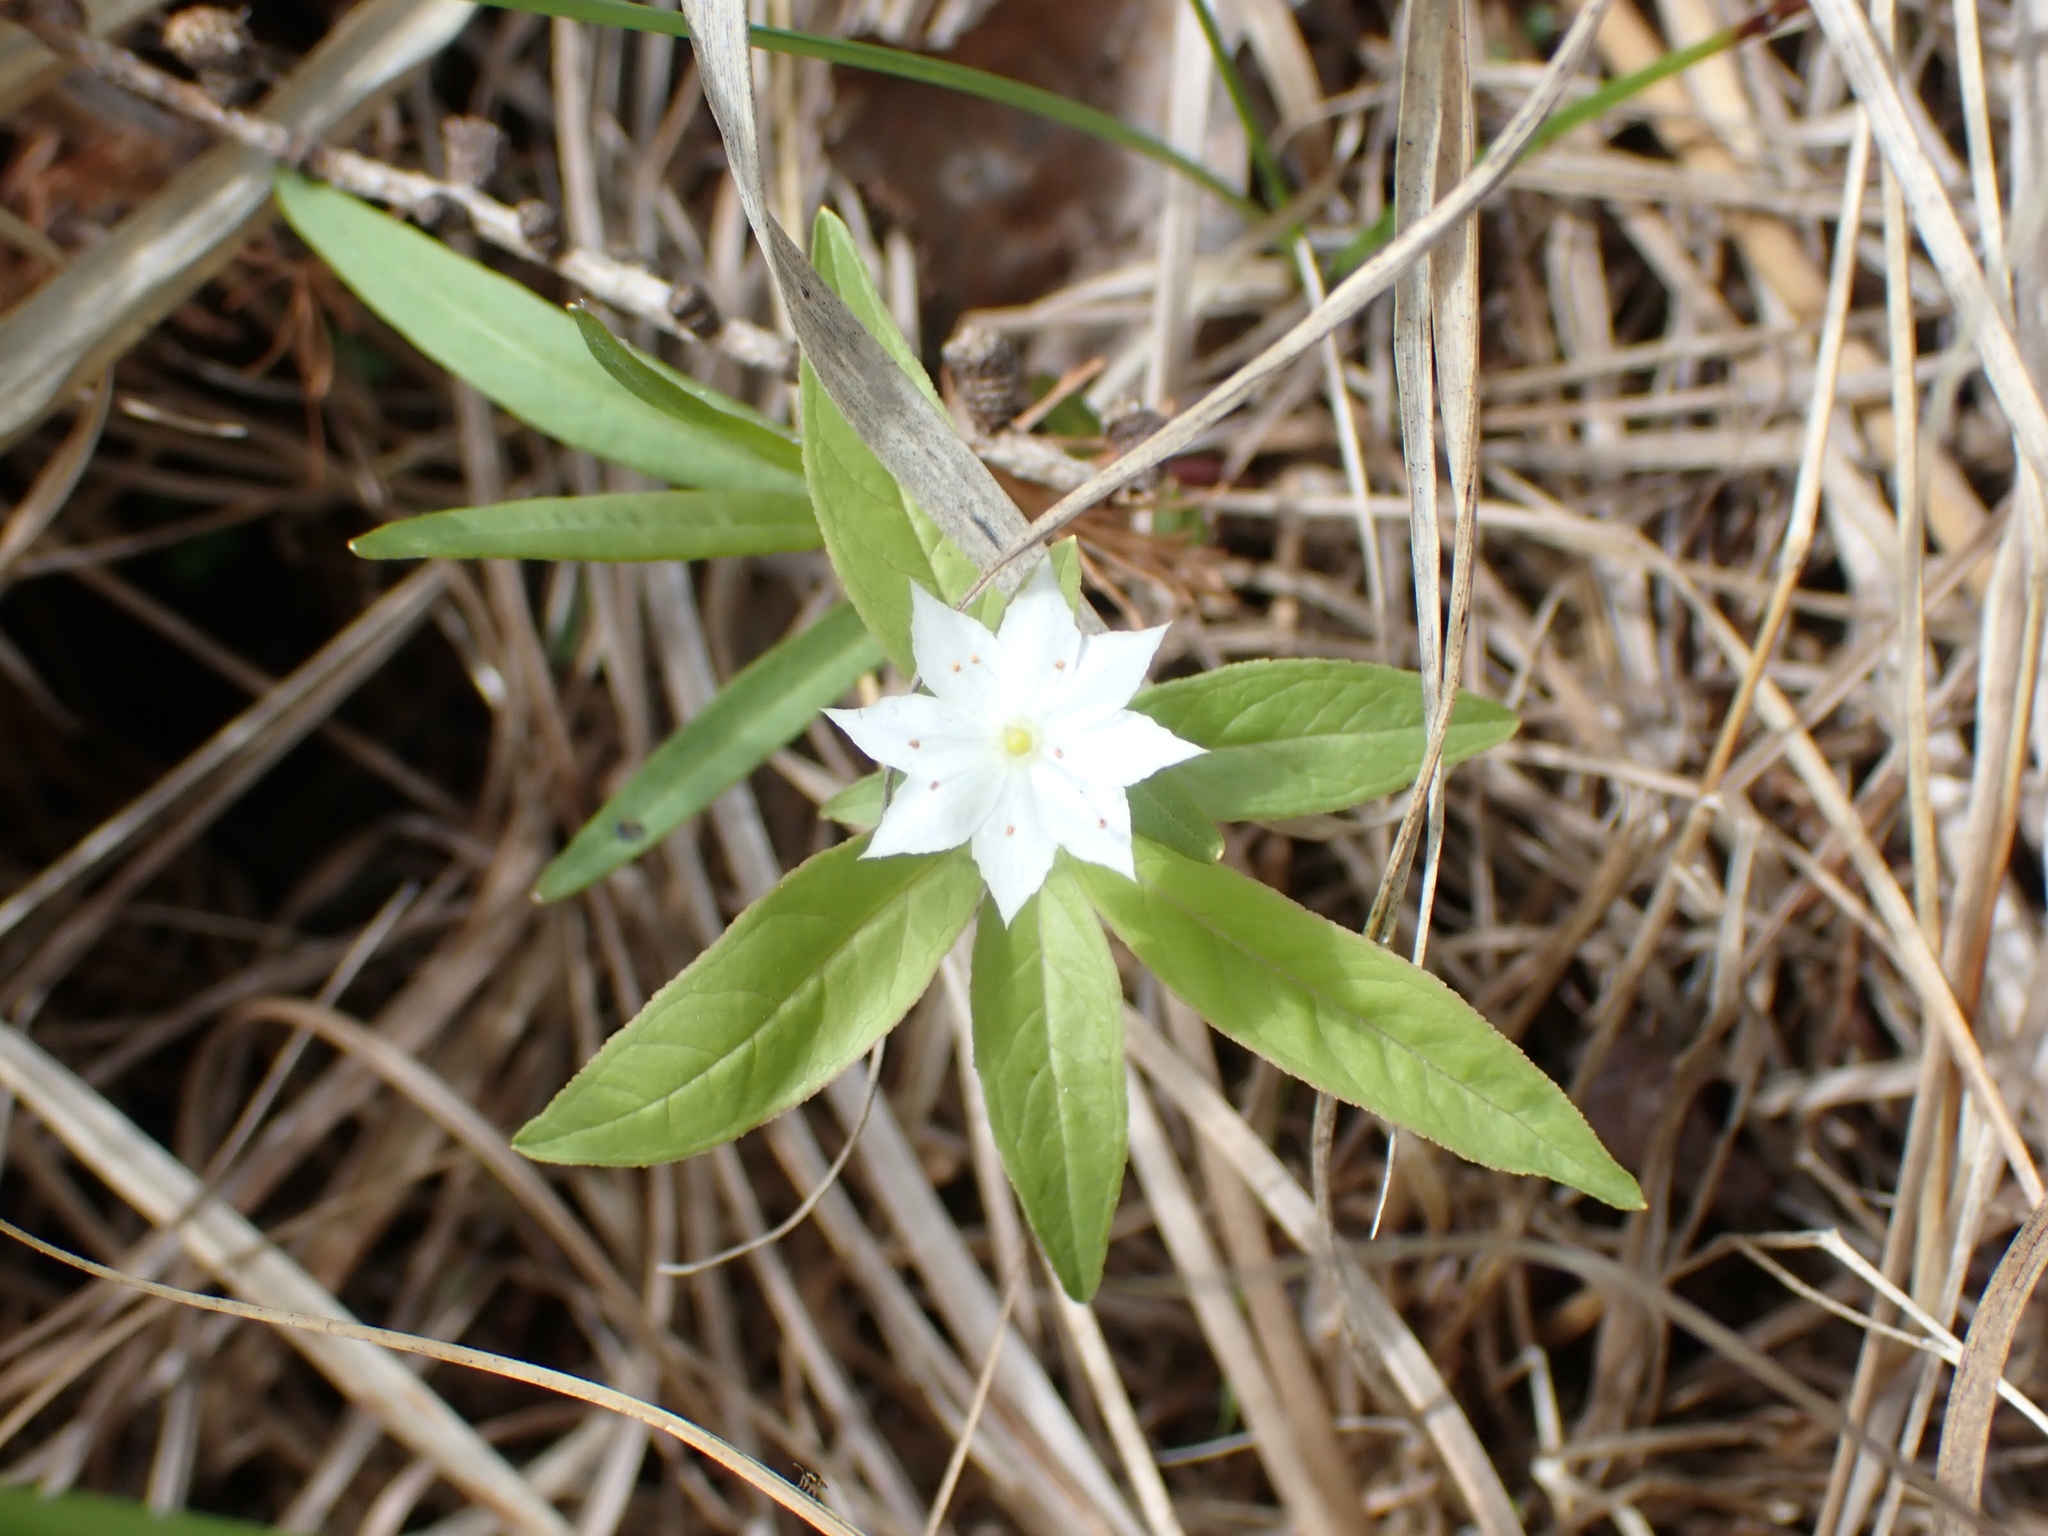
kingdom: Plantae
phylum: Tracheophyta
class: Magnoliopsida
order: Ericales
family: Primulaceae
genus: Lysimachia
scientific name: Lysimachia borealis
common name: American starflower
